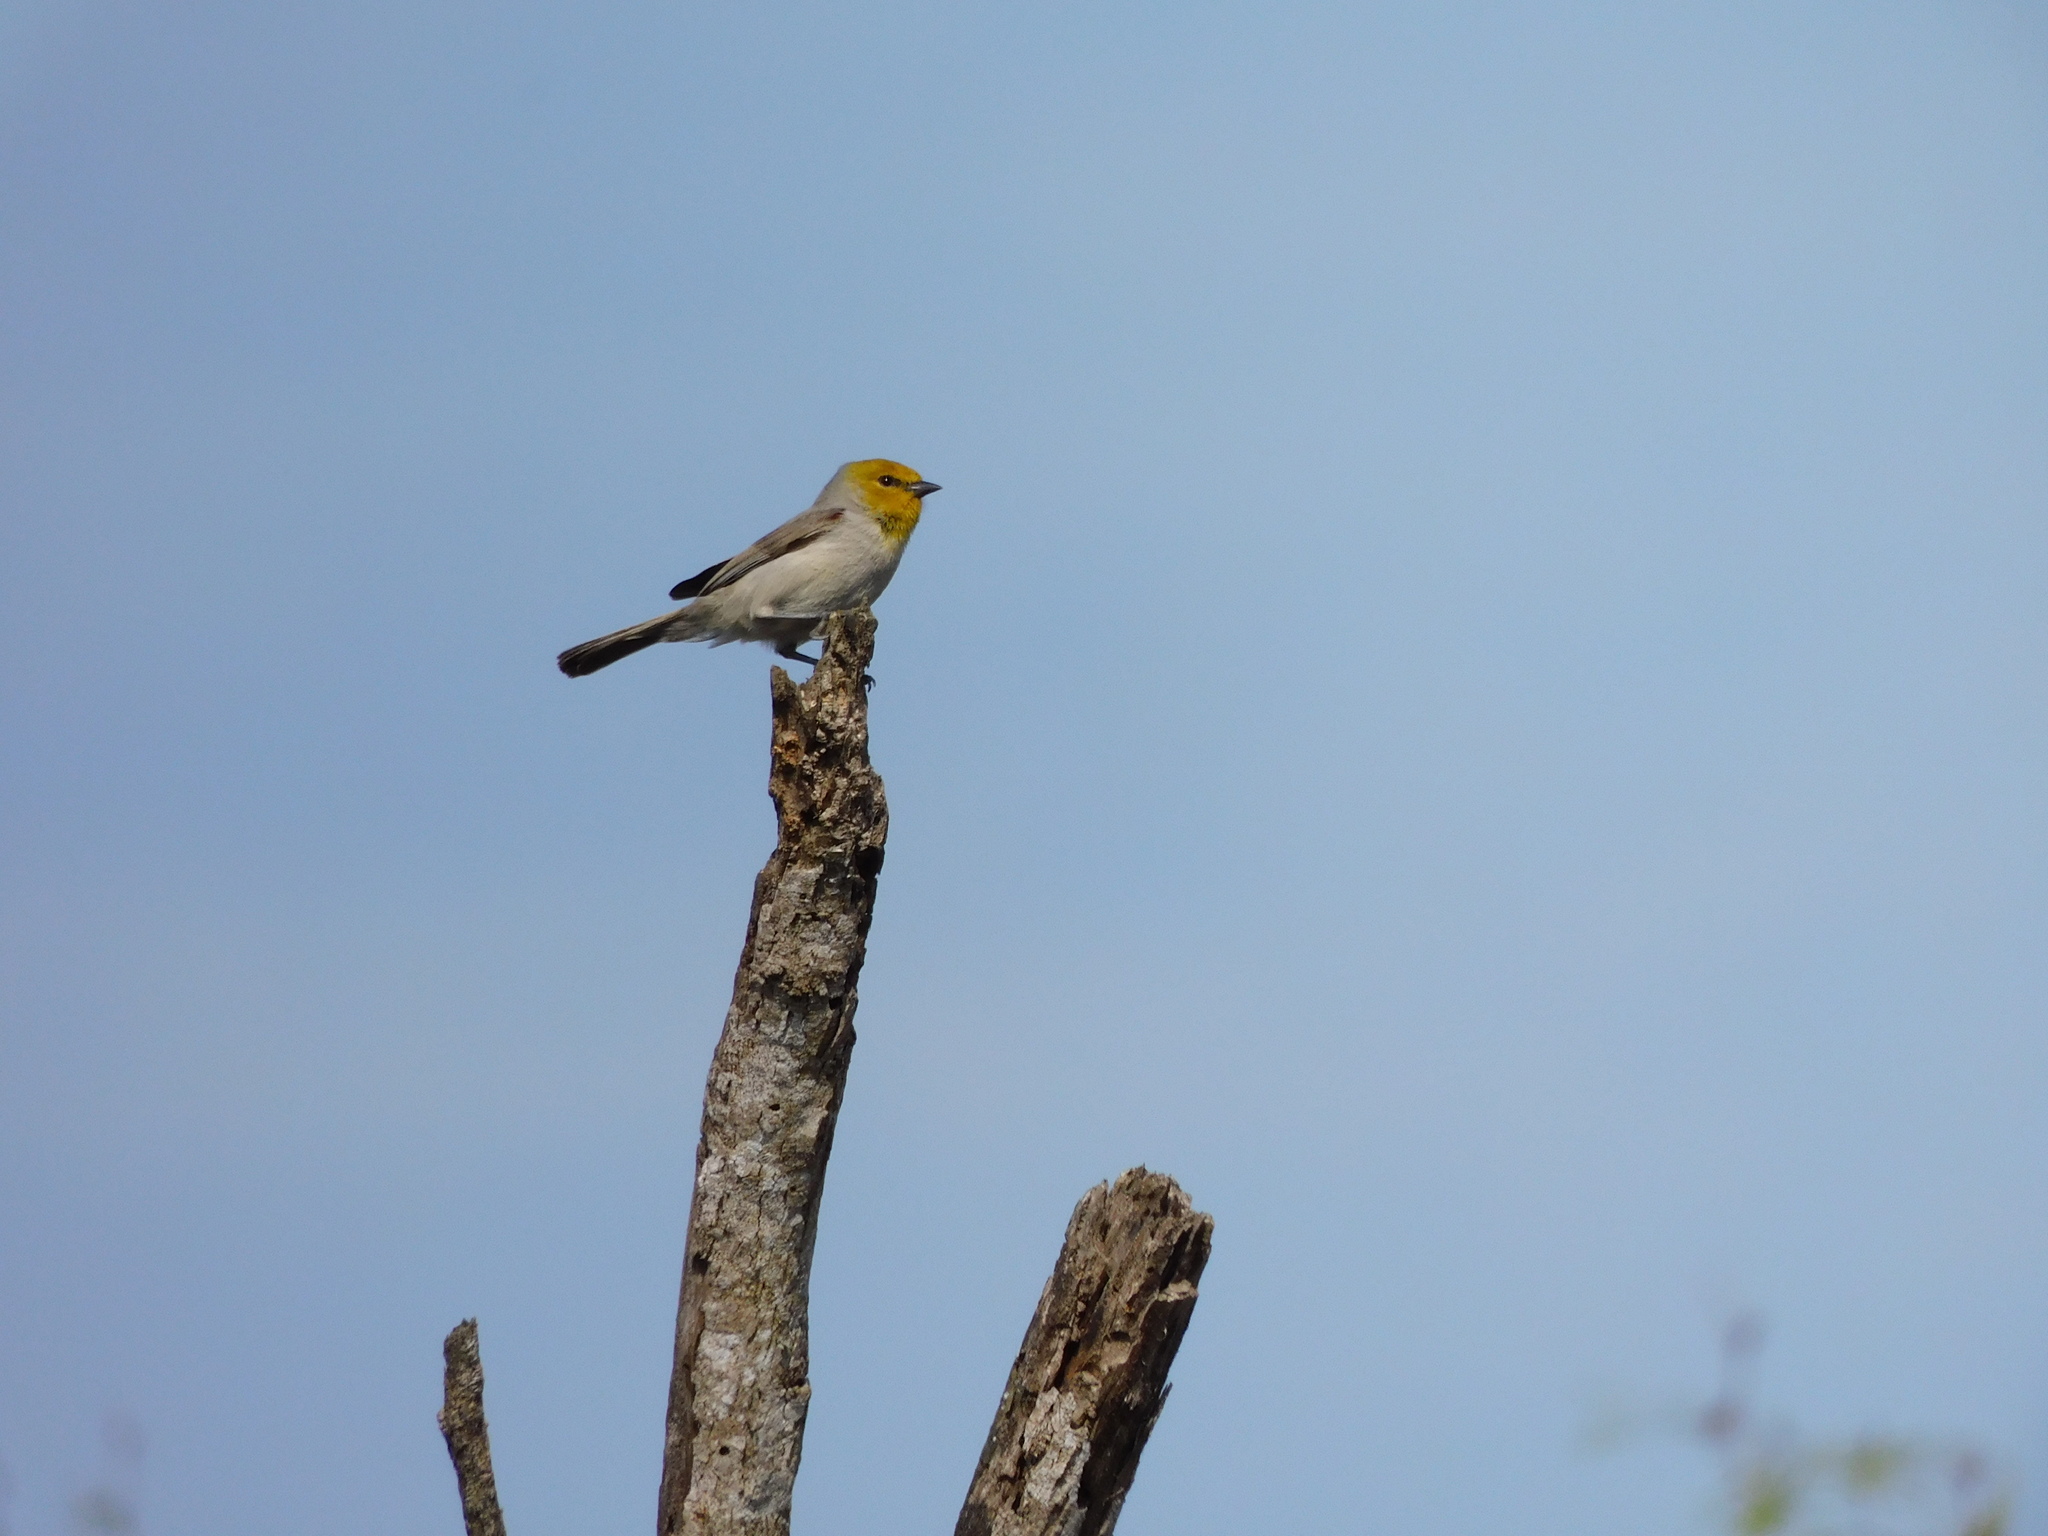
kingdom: Animalia
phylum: Chordata
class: Aves
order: Passeriformes
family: Remizidae
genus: Auriparus
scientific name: Auriparus flaviceps
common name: Verdin
